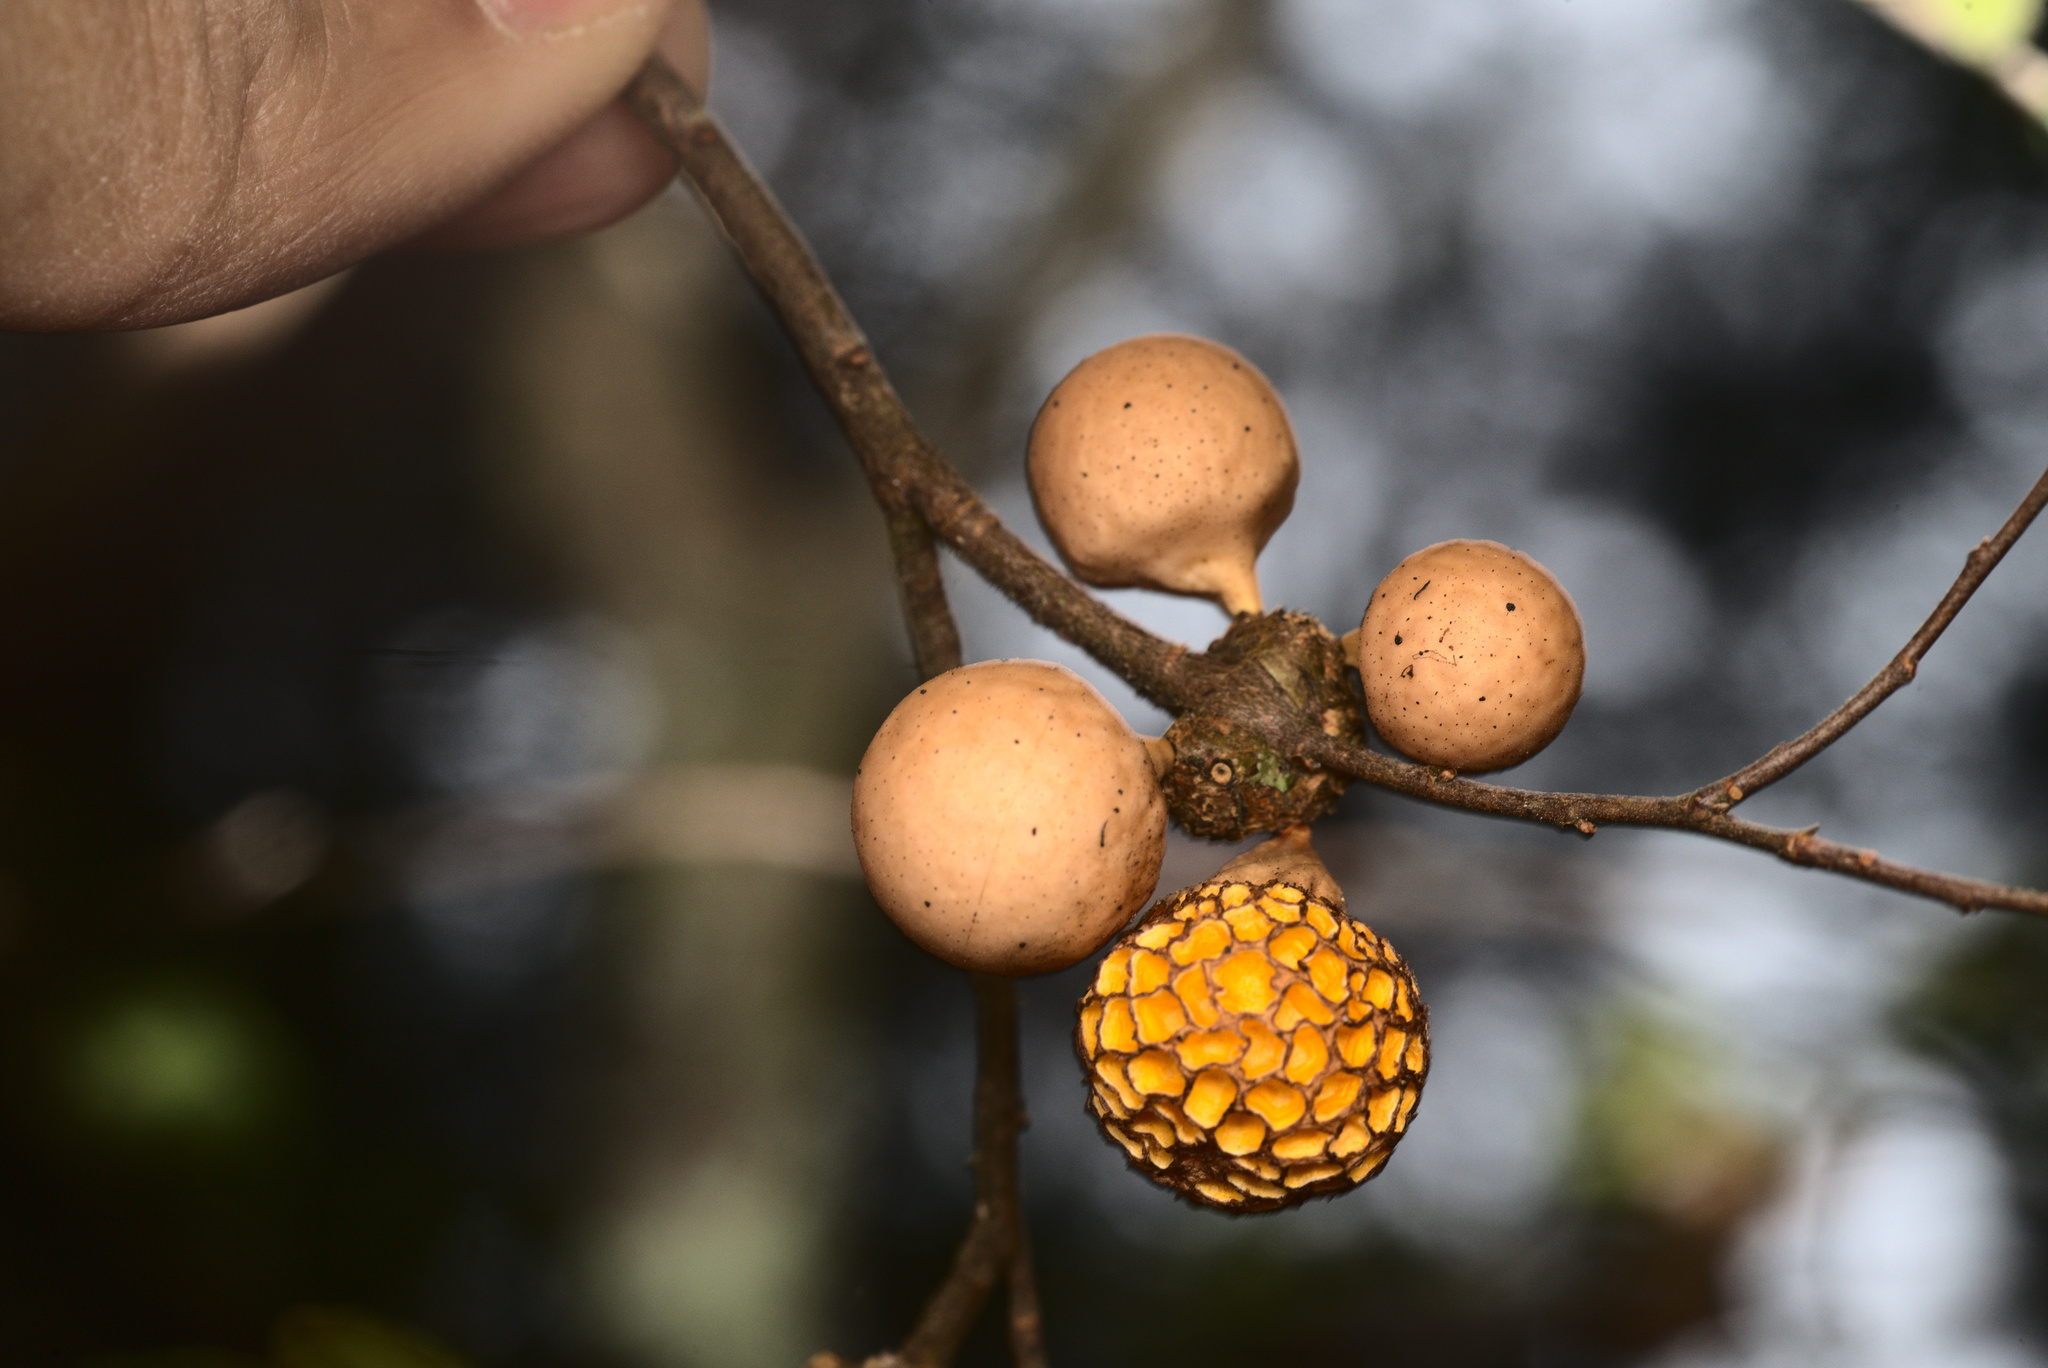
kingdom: Fungi
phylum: Ascomycota
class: Leotiomycetes
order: Cyttariales
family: Cyttariaceae
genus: Cyttaria
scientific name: Cyttaria gunnii
